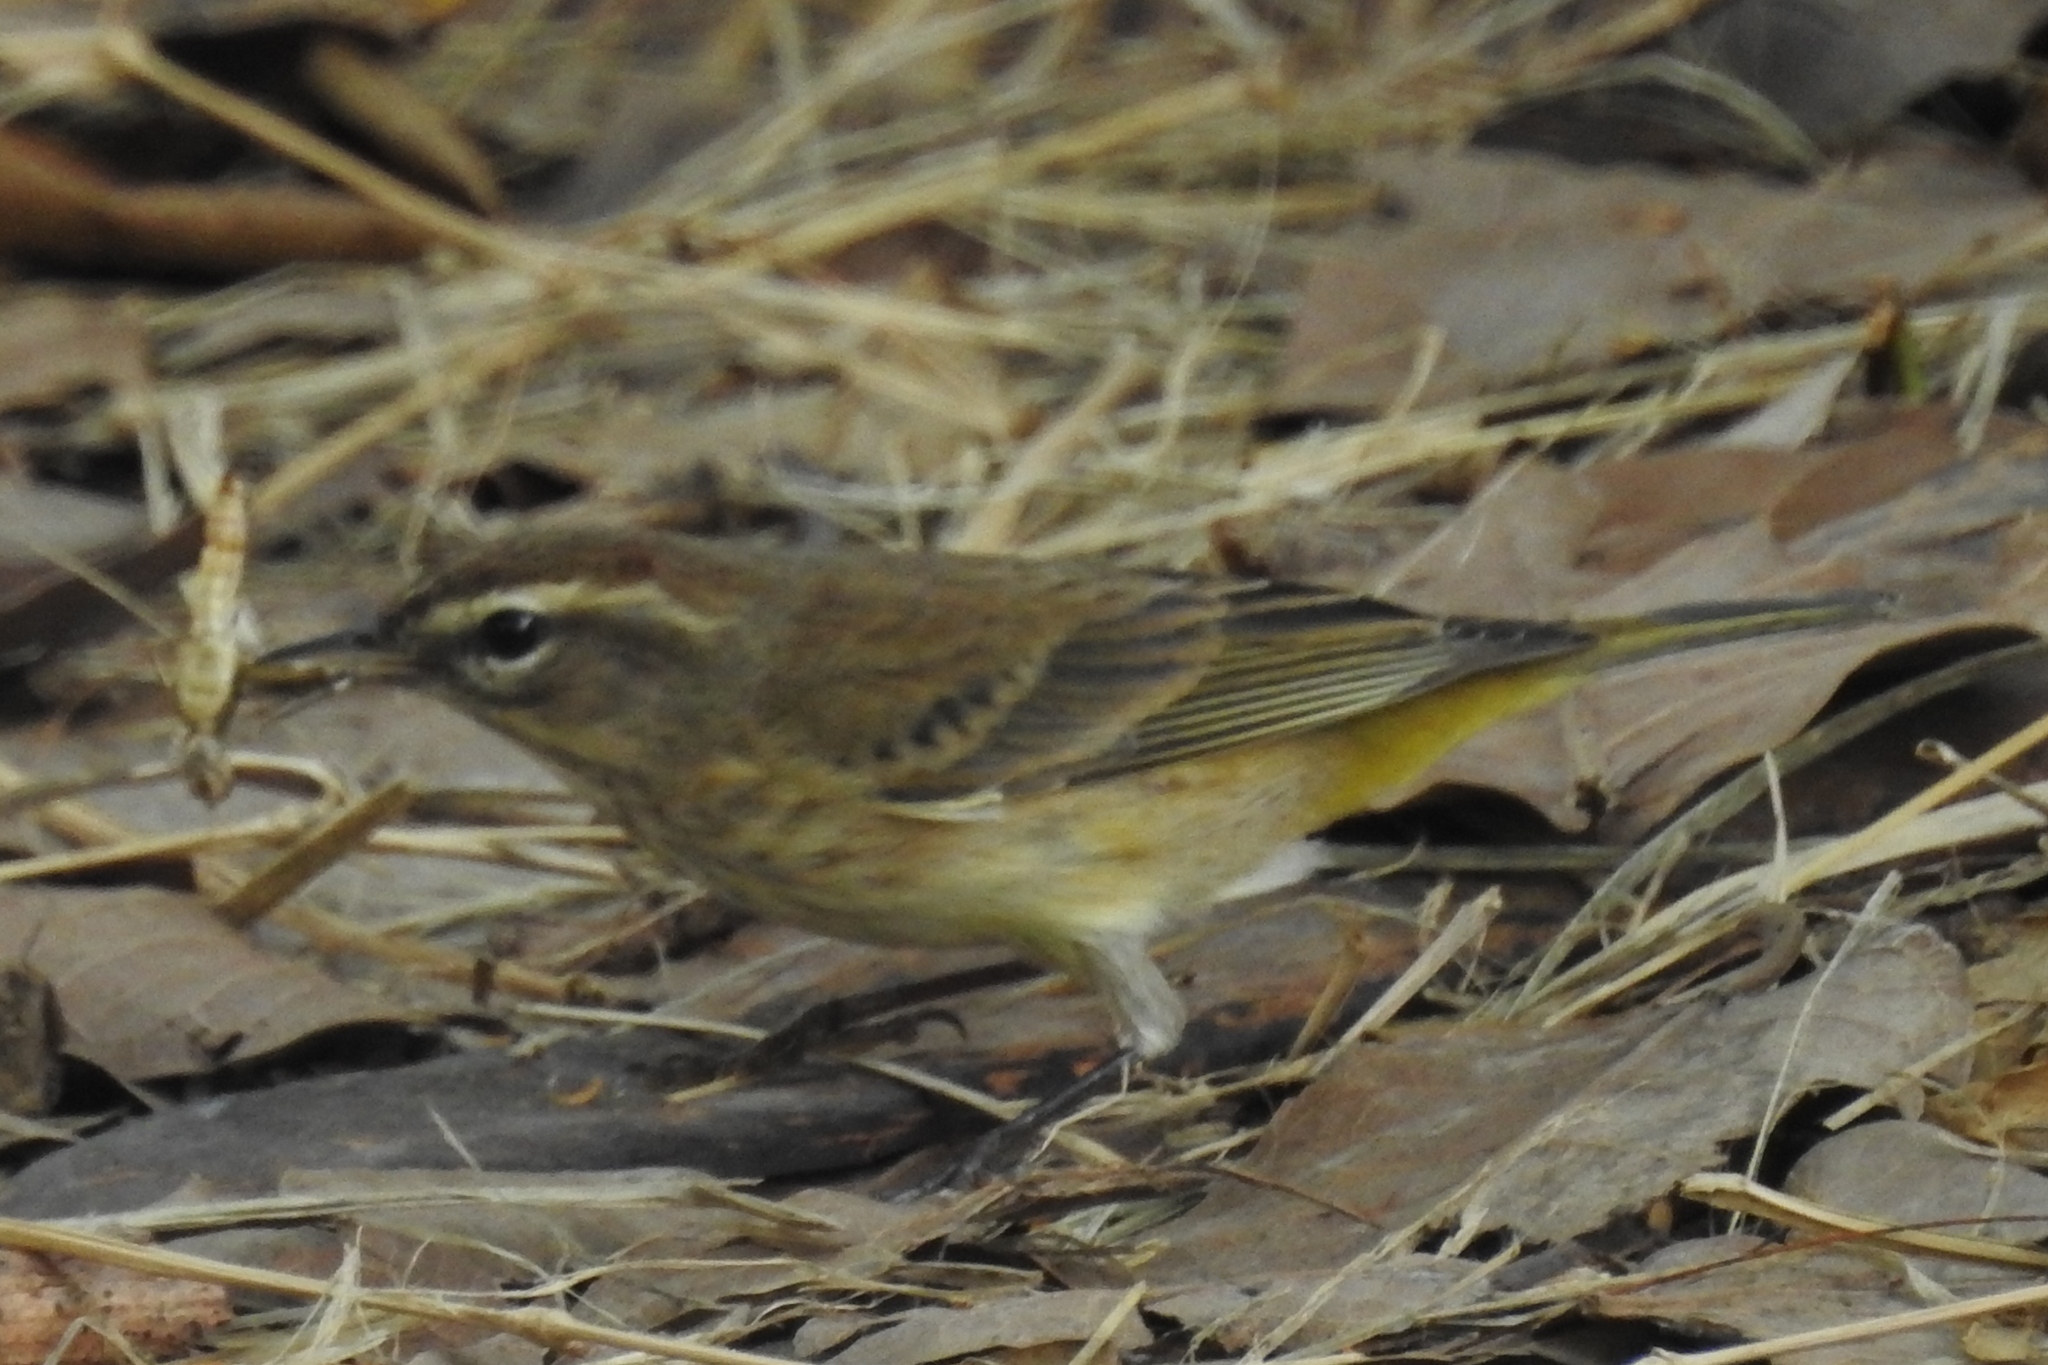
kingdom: Animalia
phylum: Chordata
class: Aves
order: Passeriformes
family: Parulidae
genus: Setophaga
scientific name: Setophaga palmarum
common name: Palm warbler
